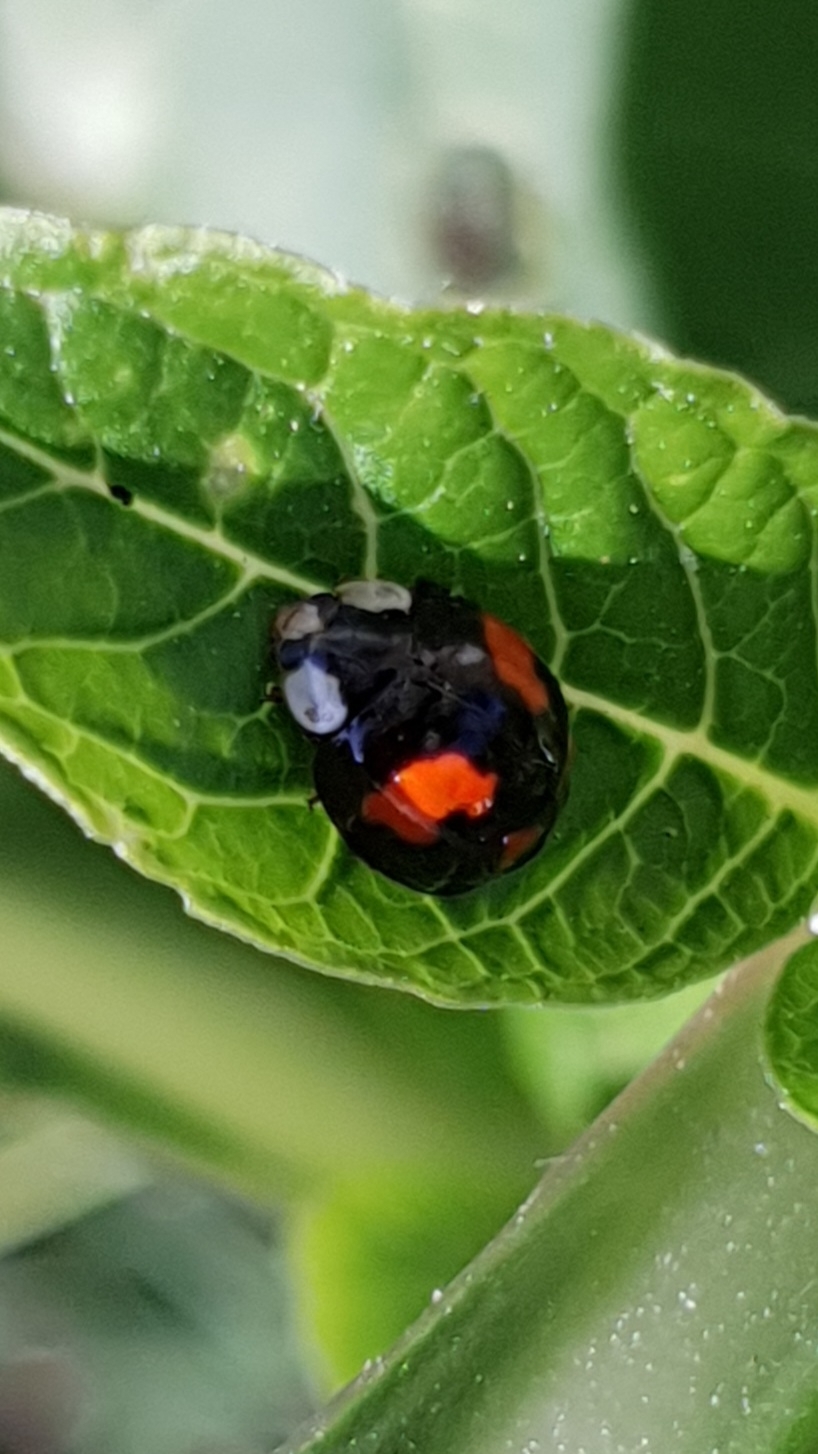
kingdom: Animalia
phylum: Arthropoda
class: Insecta
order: Coleoptera
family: Coccinellidae
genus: Harmonia
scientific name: Harmonia axyridis
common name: Harlequin ladybird
